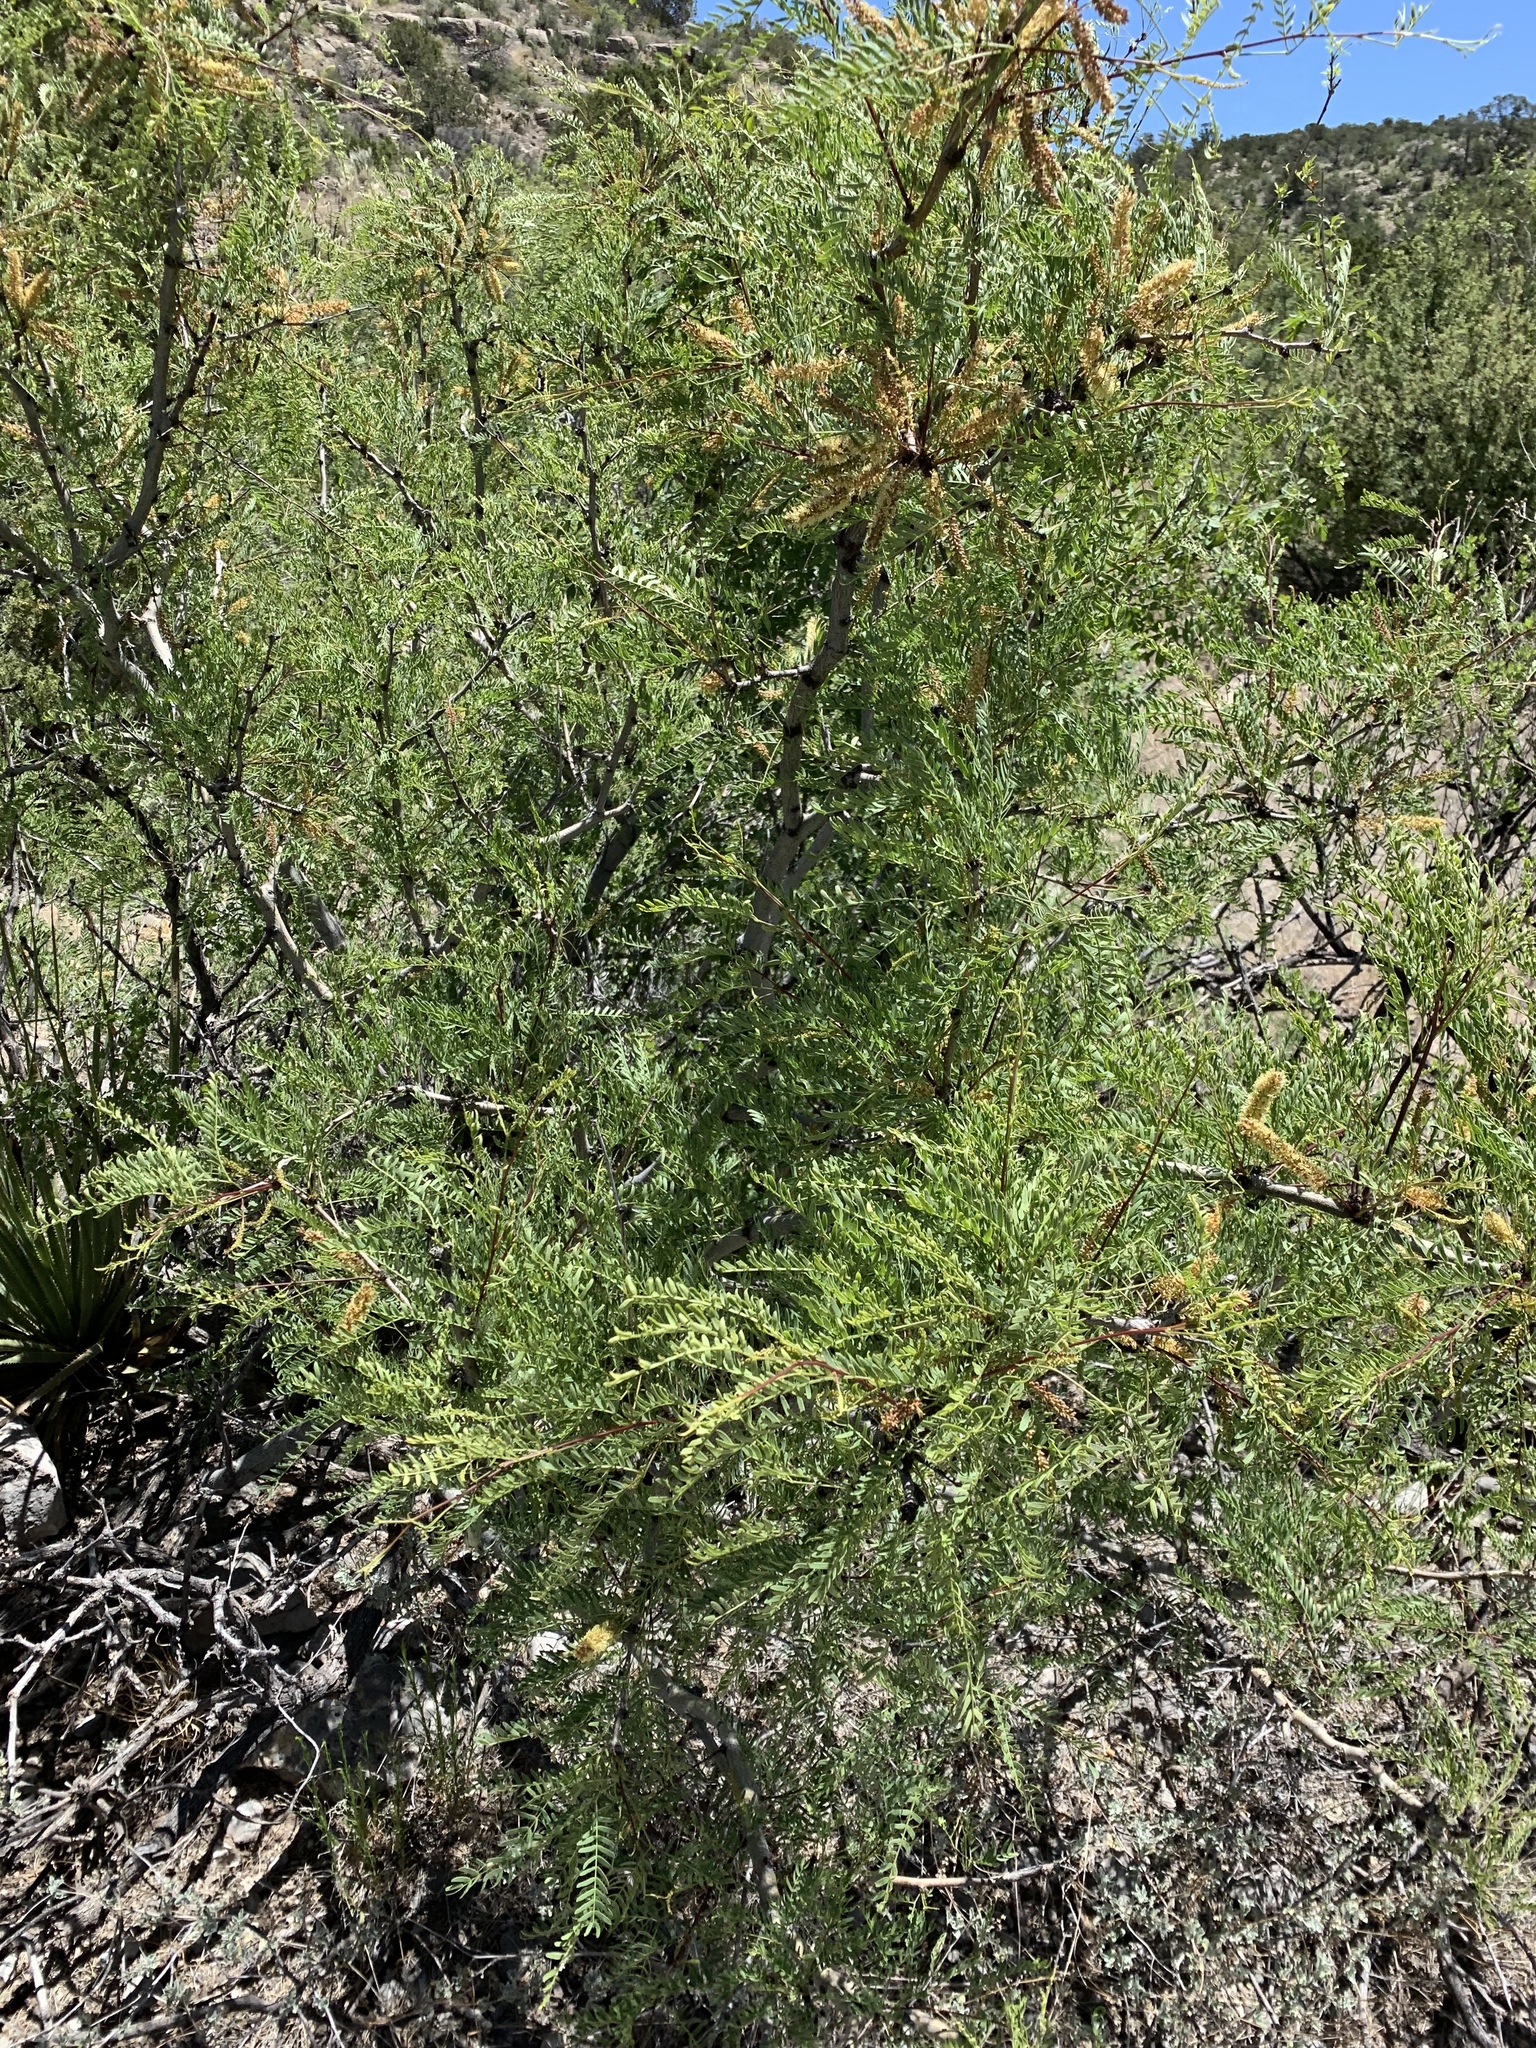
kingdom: Plantae
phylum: Tracheophyta
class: Magnoliopsida
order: Fabales
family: Fabaceae
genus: Prosopis
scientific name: Prosopis glandulosa
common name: Honey mesquite
